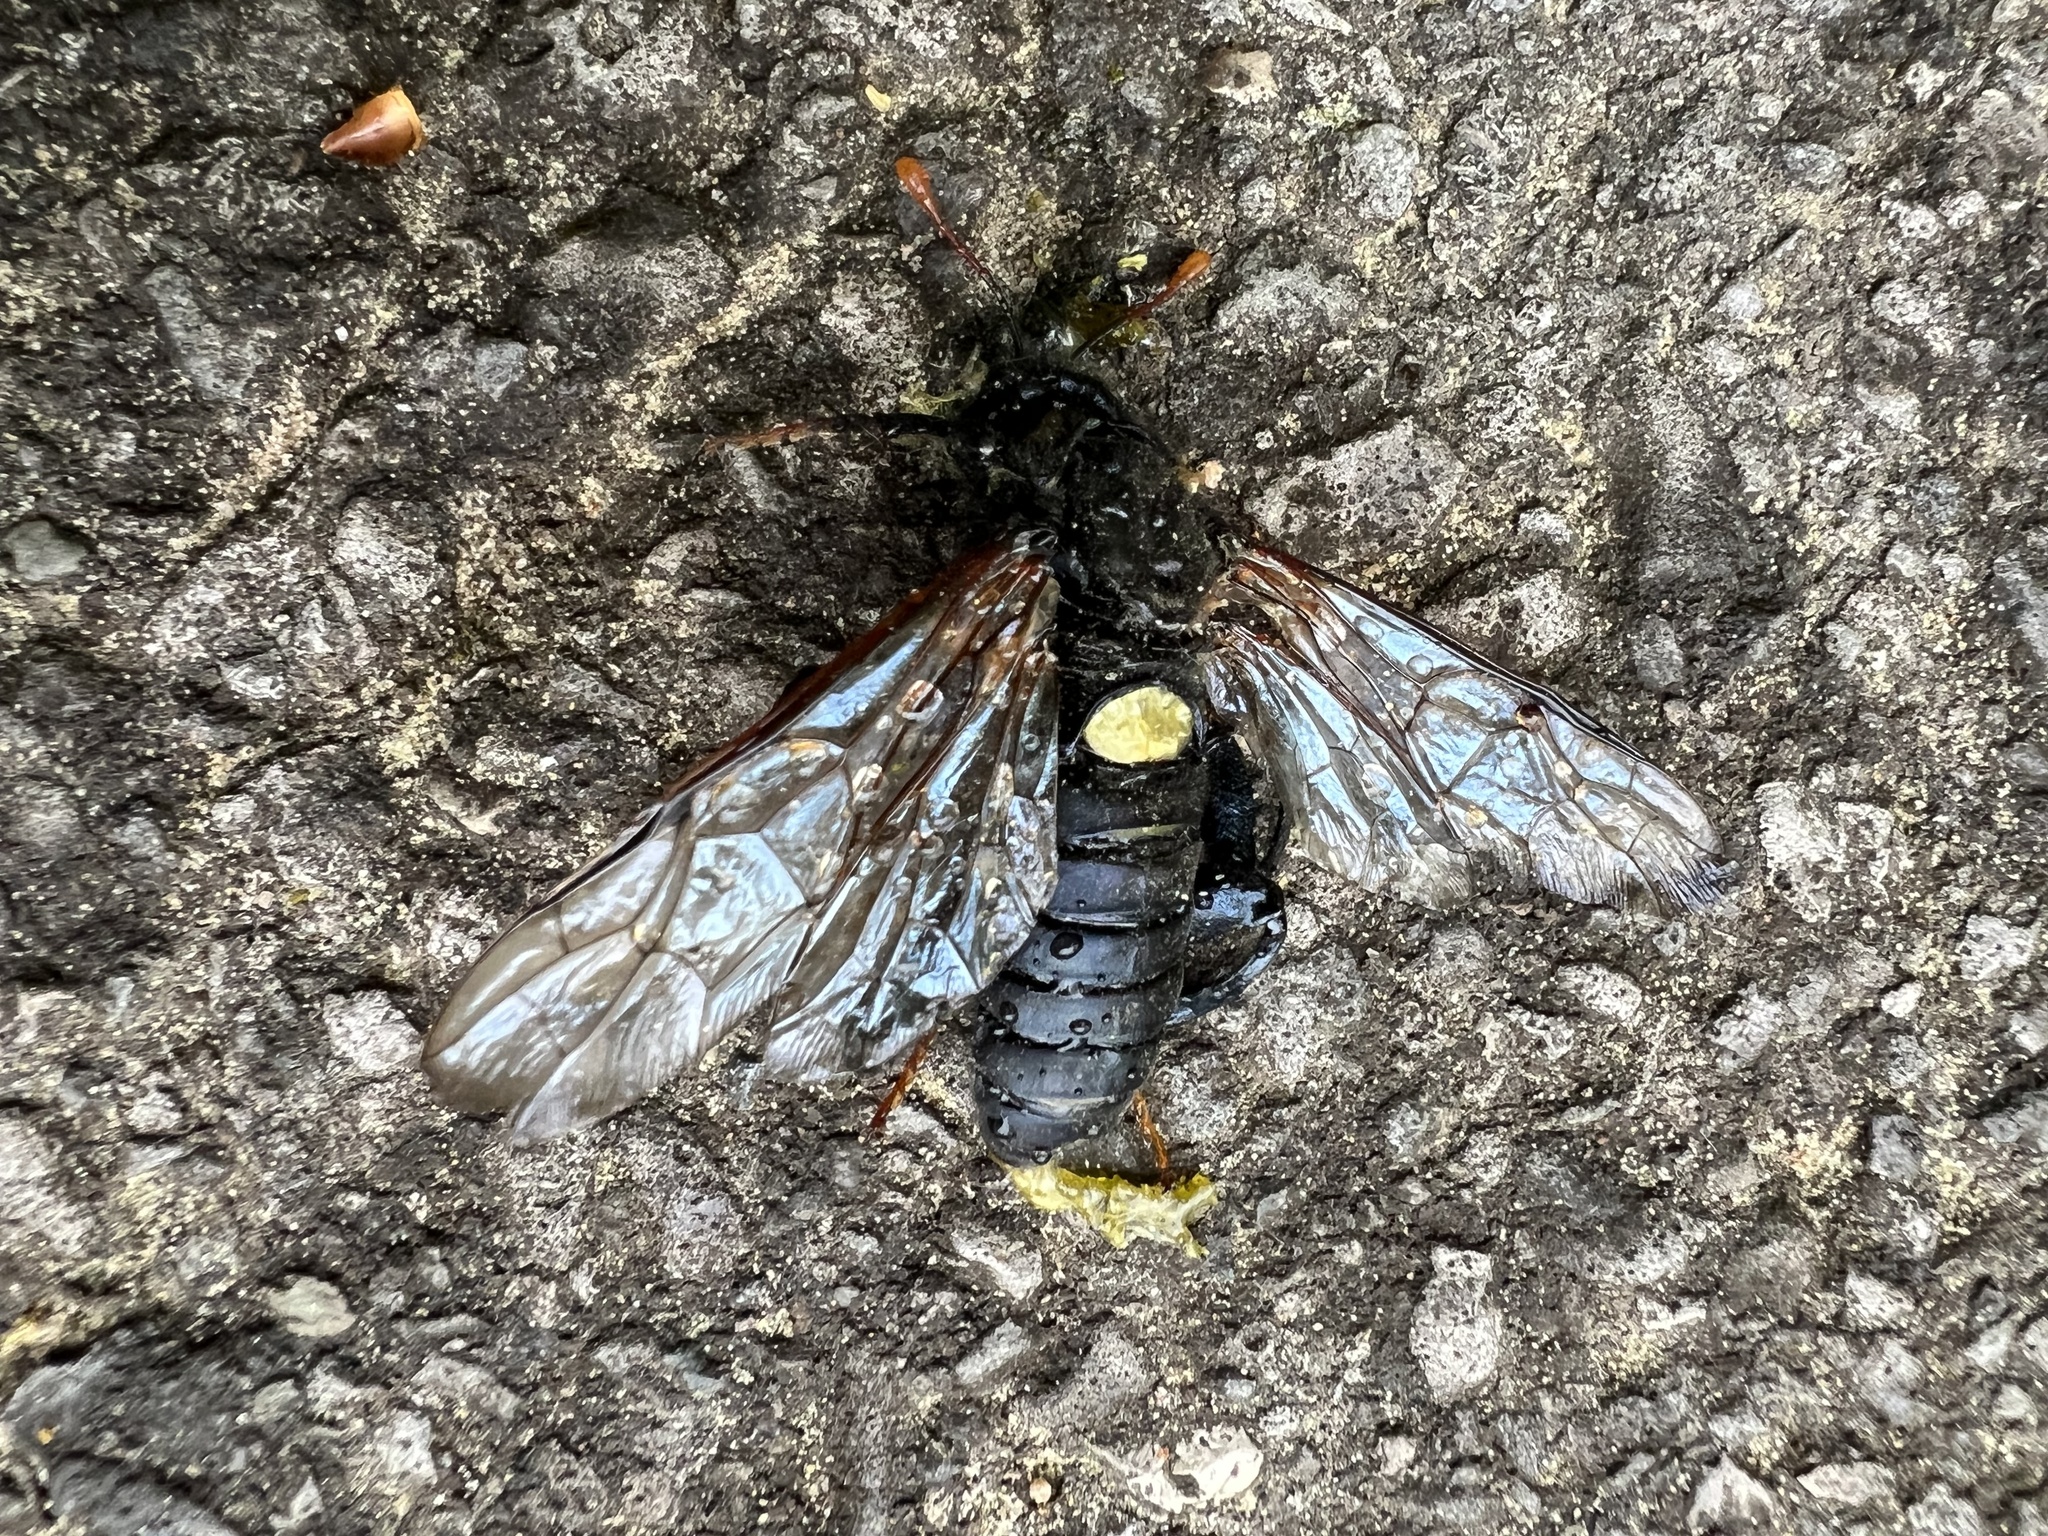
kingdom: Animalia
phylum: Arthropoda
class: Insecta
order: Hymenoptera
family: Cimbicidae
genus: Cimbex
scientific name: Cimbex femoratus
